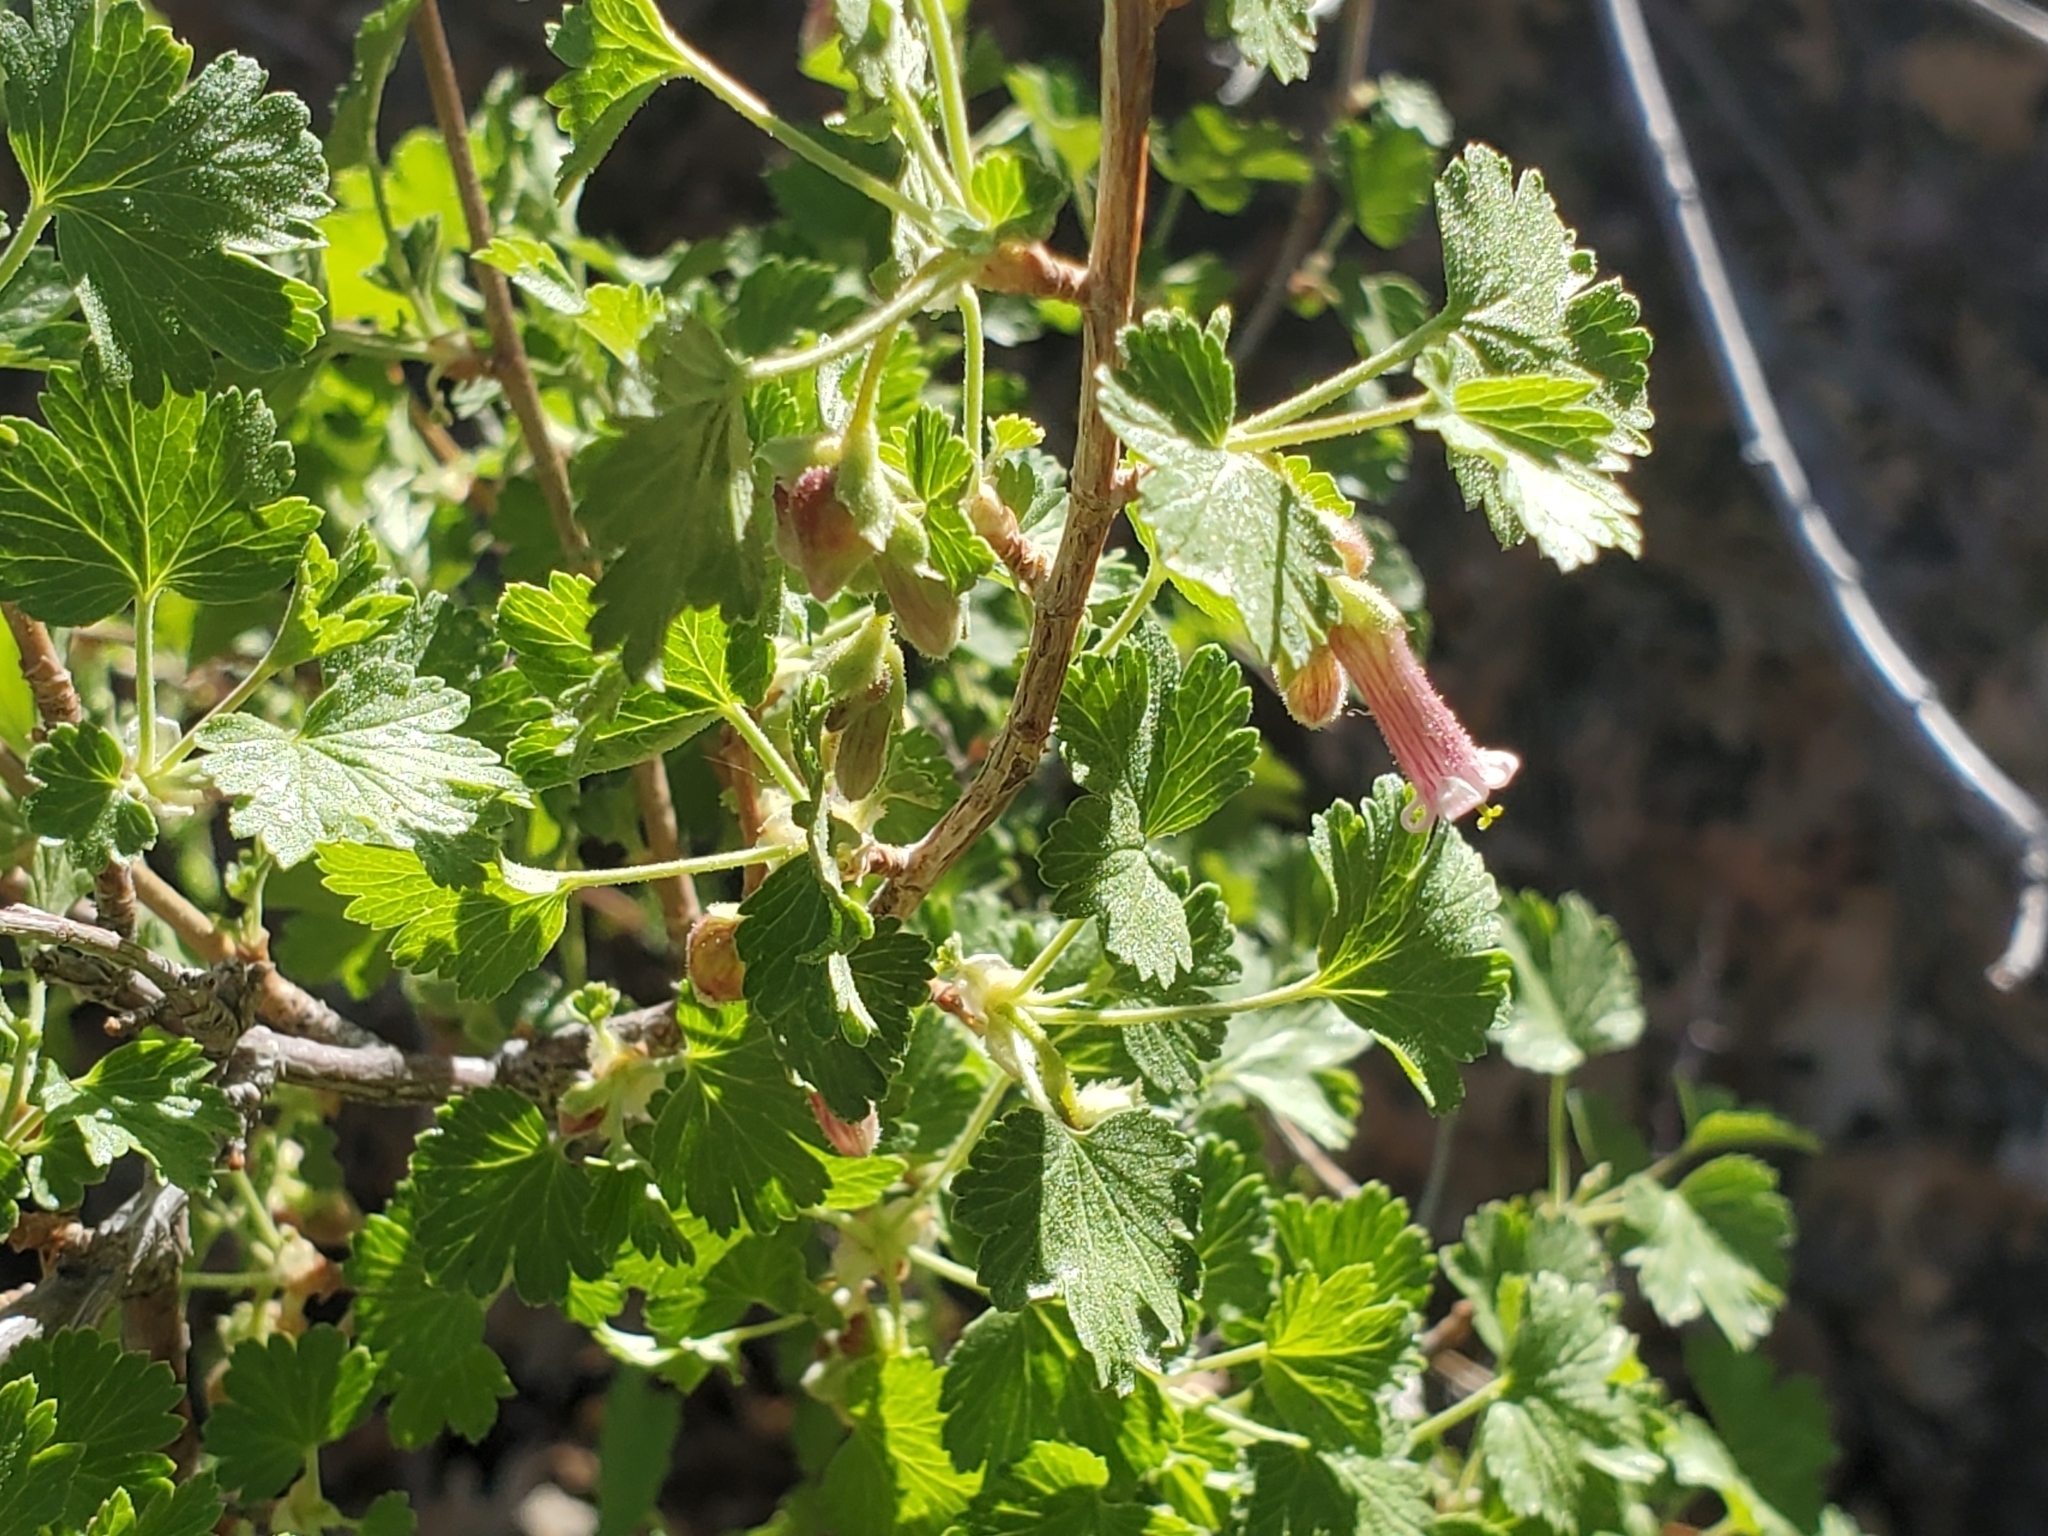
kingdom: Plantae
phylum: Tracheophyta
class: Magnoliopsida
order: Saxifragales
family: Grossulariaceae
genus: Ribes
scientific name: Ribes cereum
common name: Wax currant
